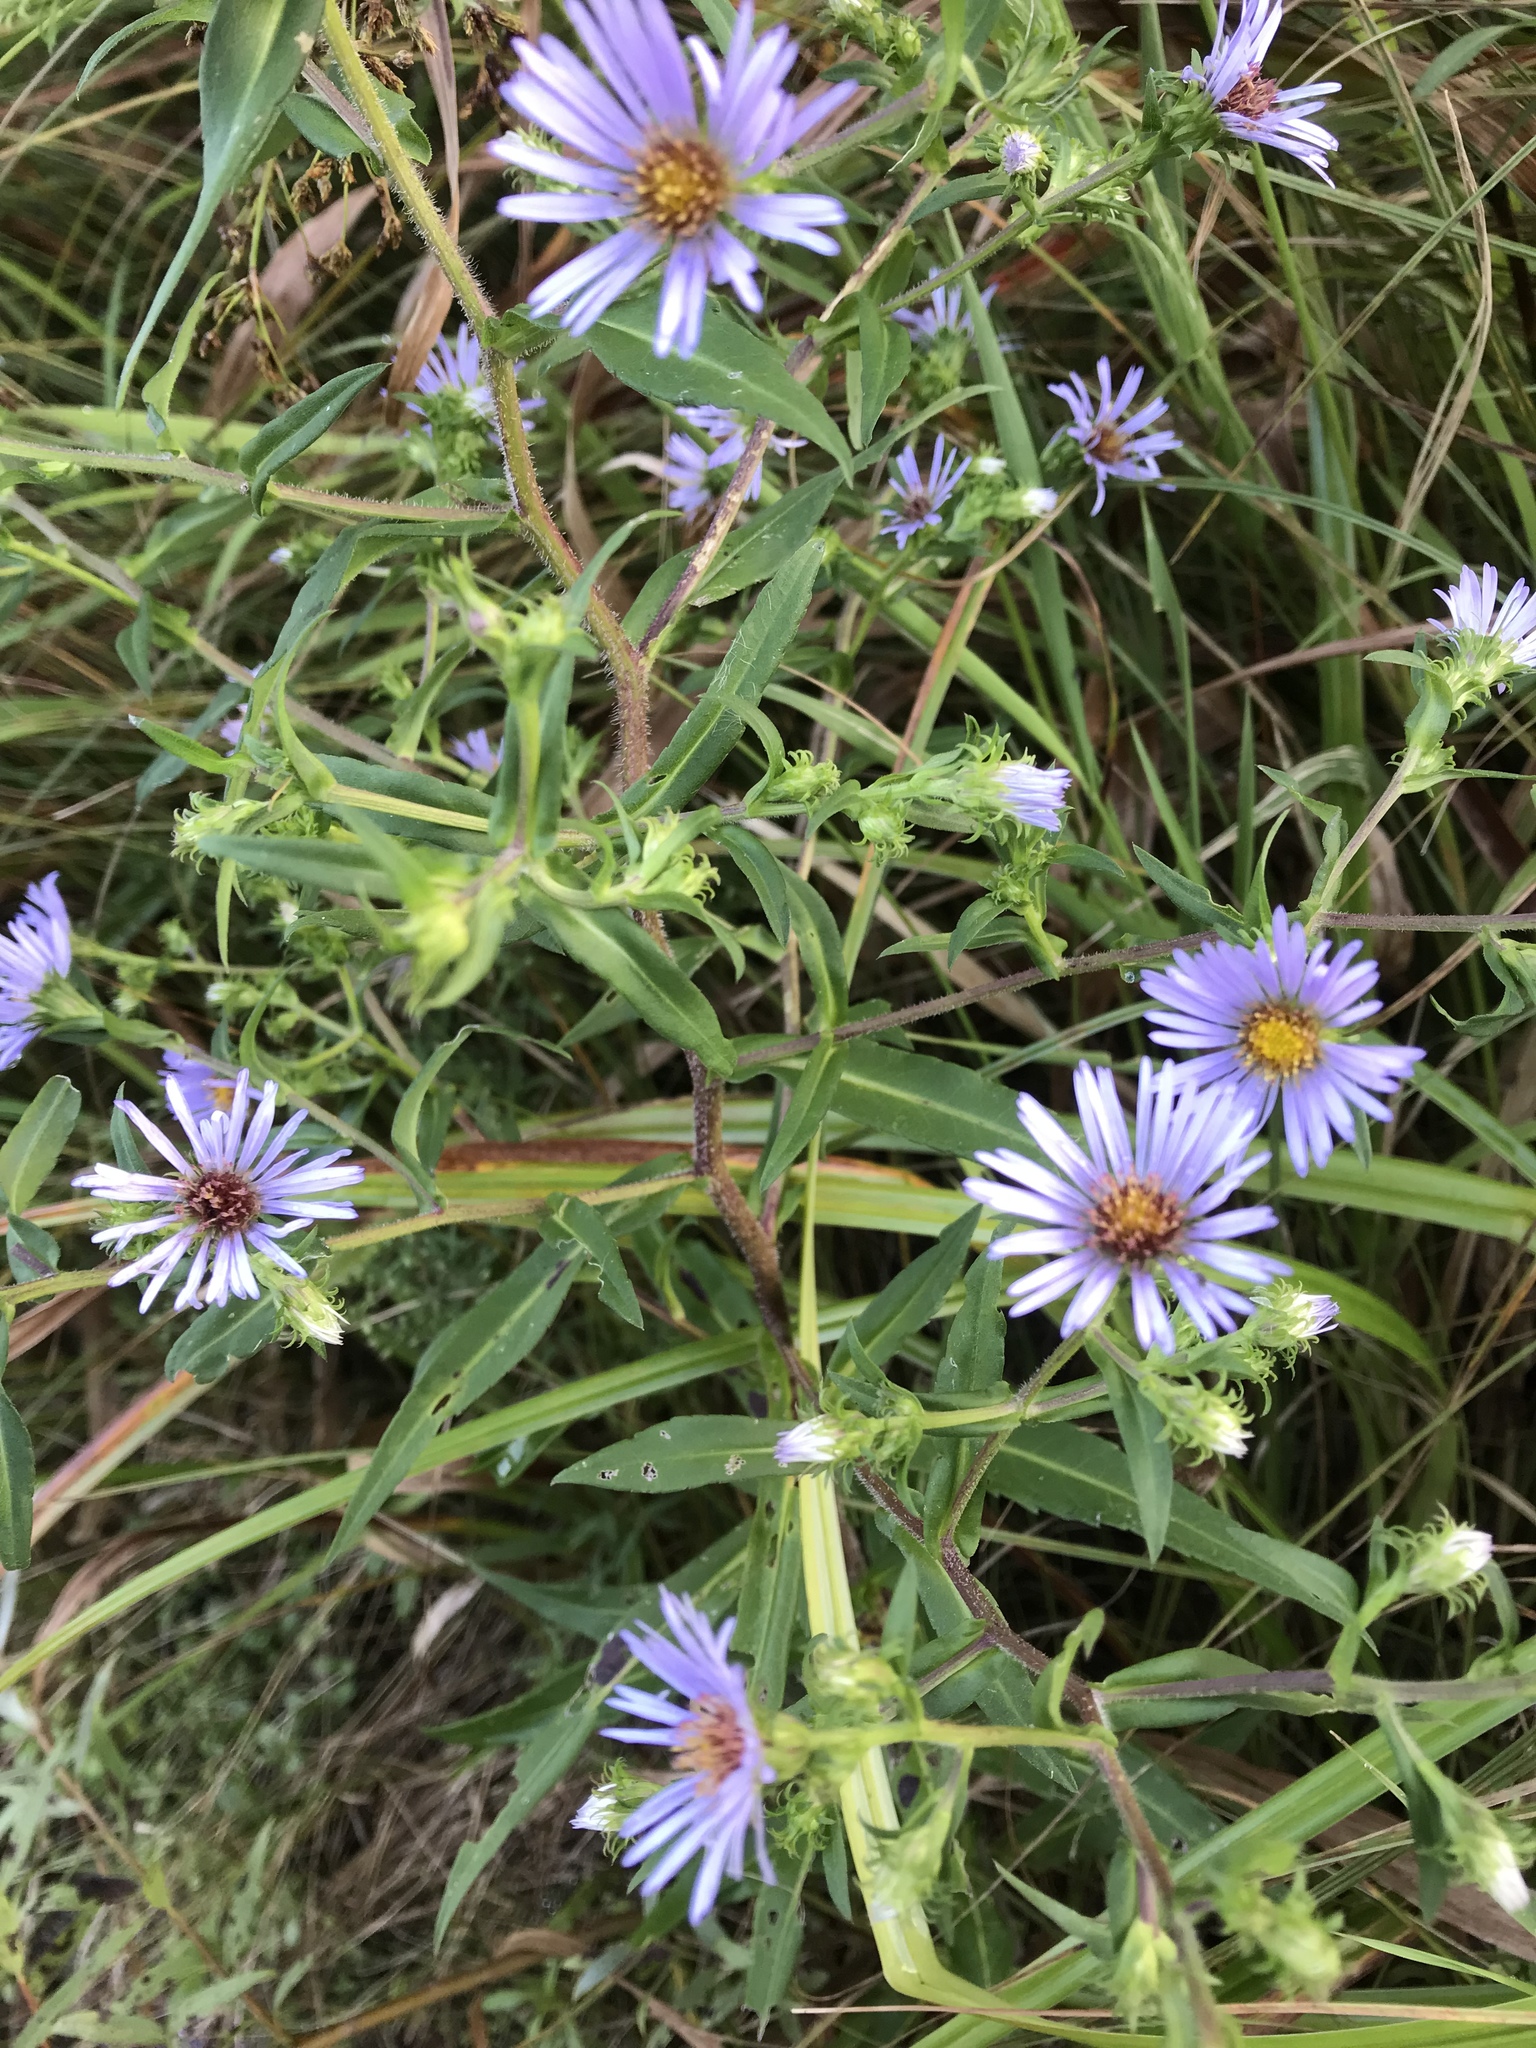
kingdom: Plantae
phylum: Tracheophyta
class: Magnoliopsida
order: Asterales
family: Asteraceae
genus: Symphyotrichum
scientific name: Symphyotrichum puniceum
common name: Bog aster
